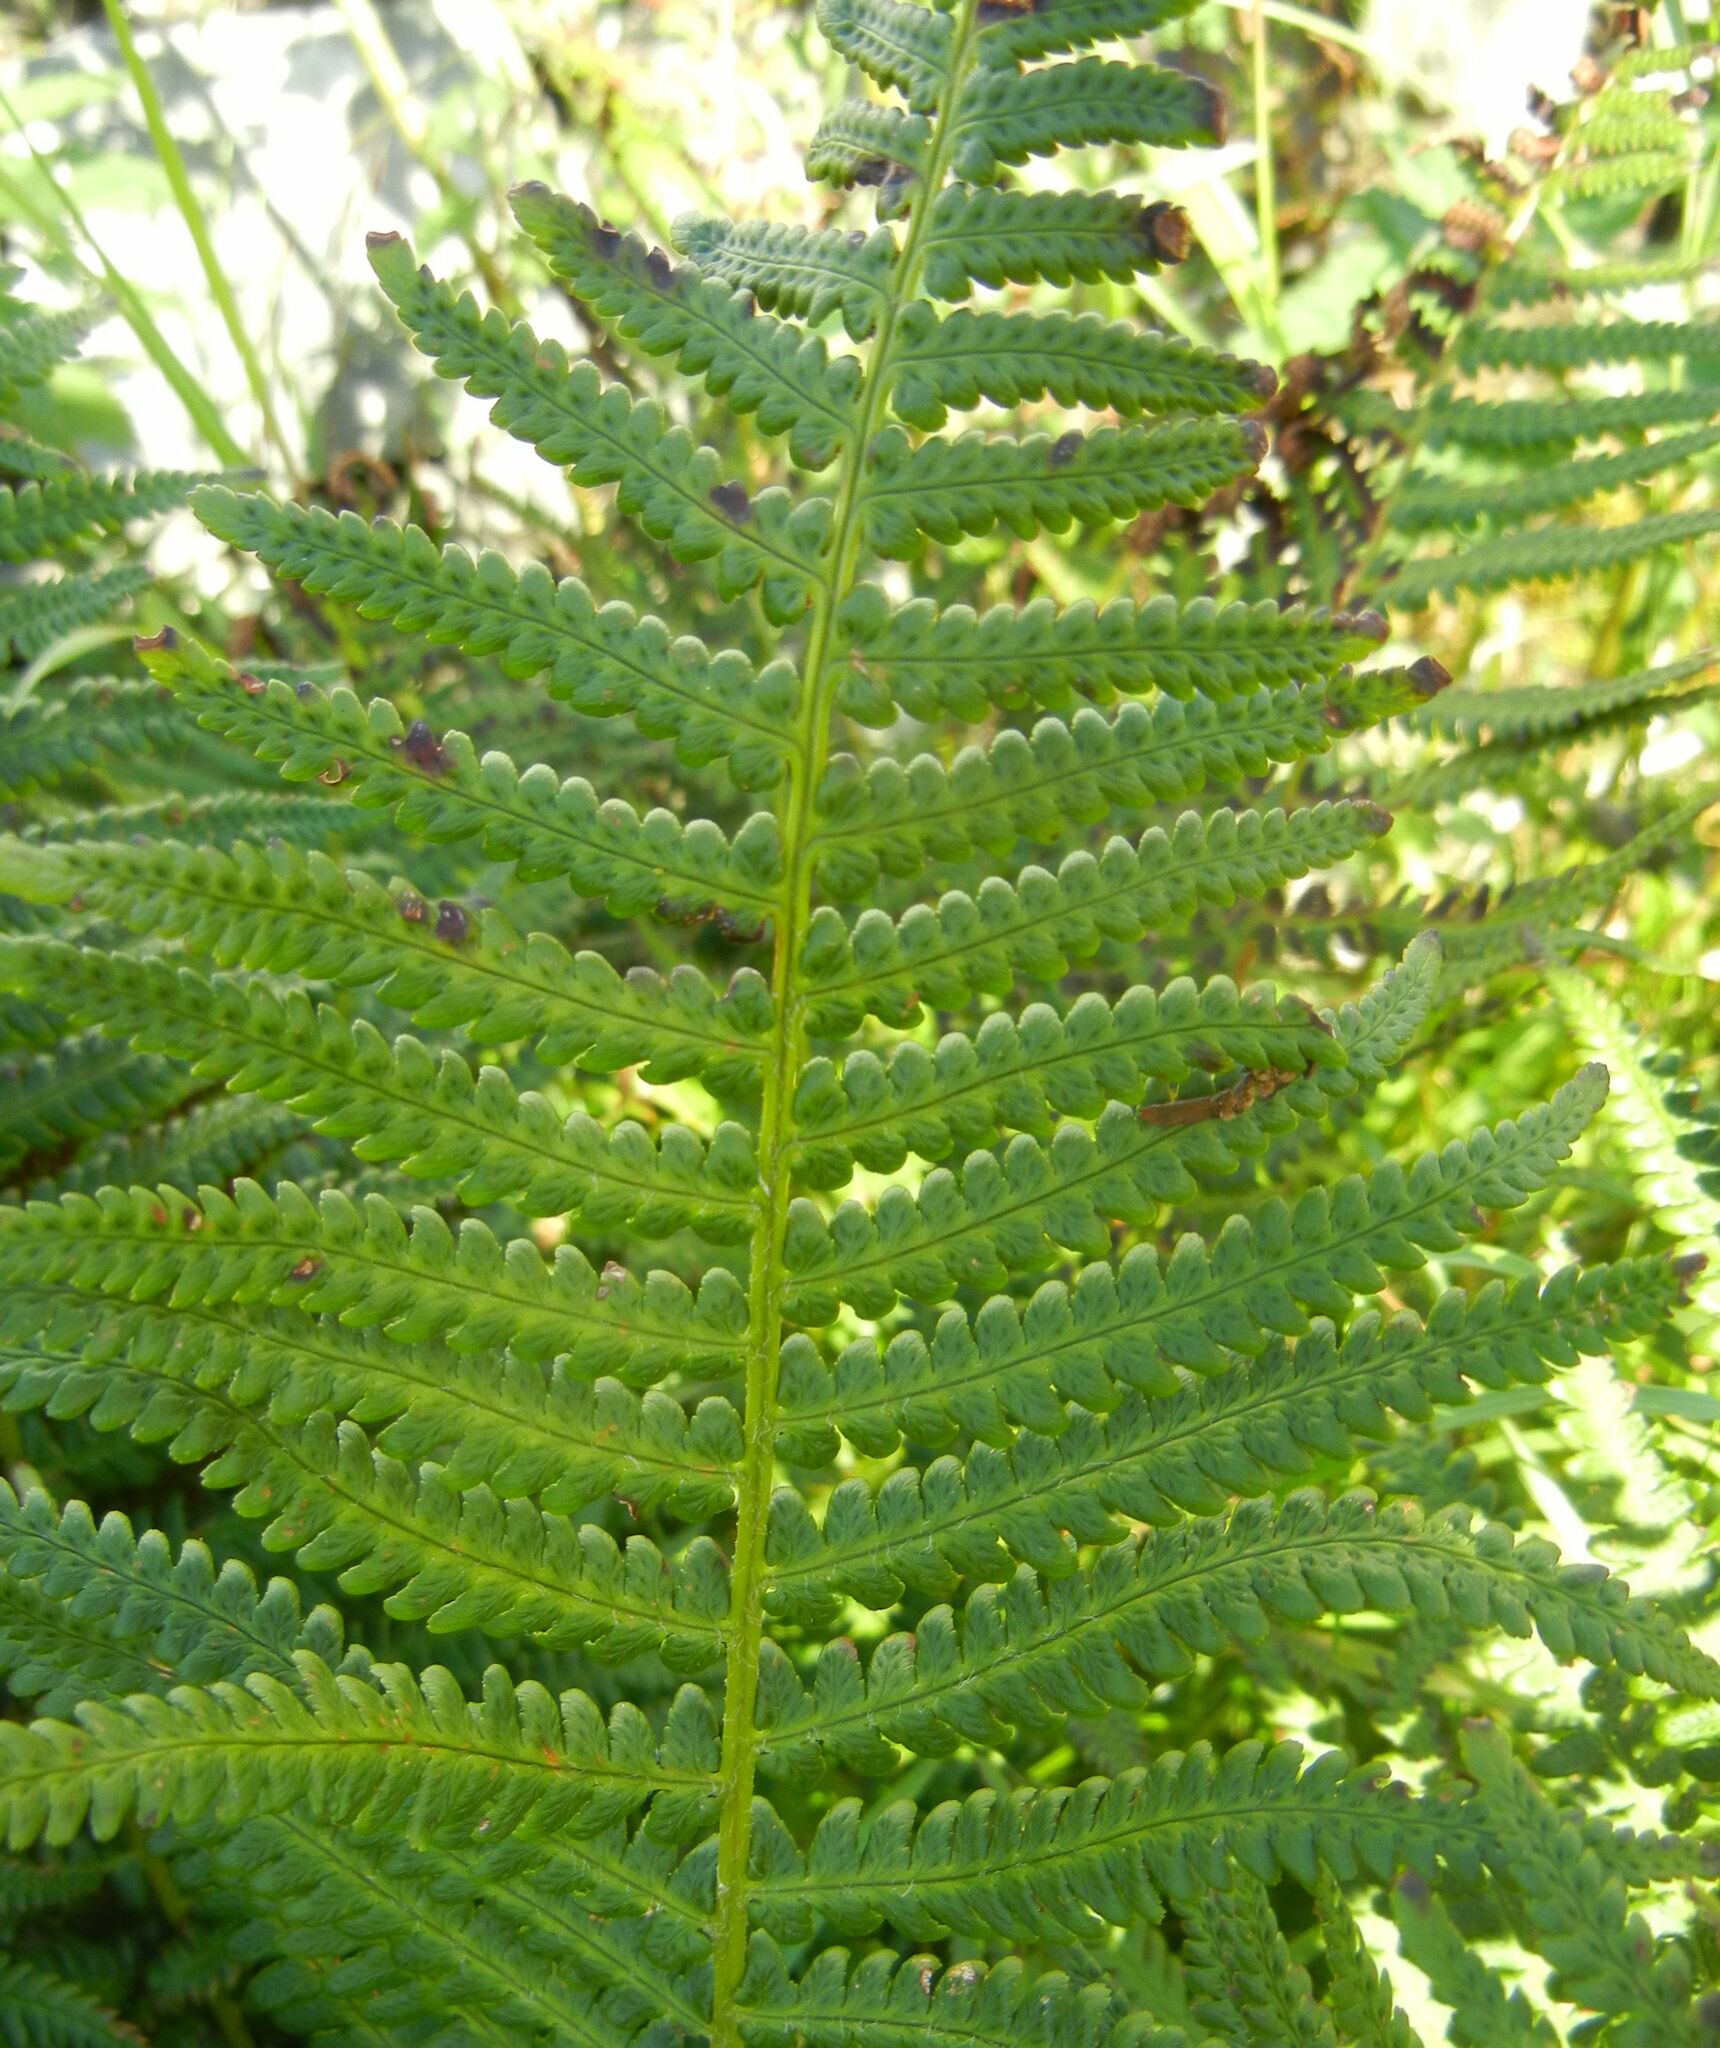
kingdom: Plantae
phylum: Tracheophyta
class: Polypodiopsida
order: Polypodiales
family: Dryopteridaceae
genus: Dryopteris
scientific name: Dryopteris filix-mas
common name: Male fern
